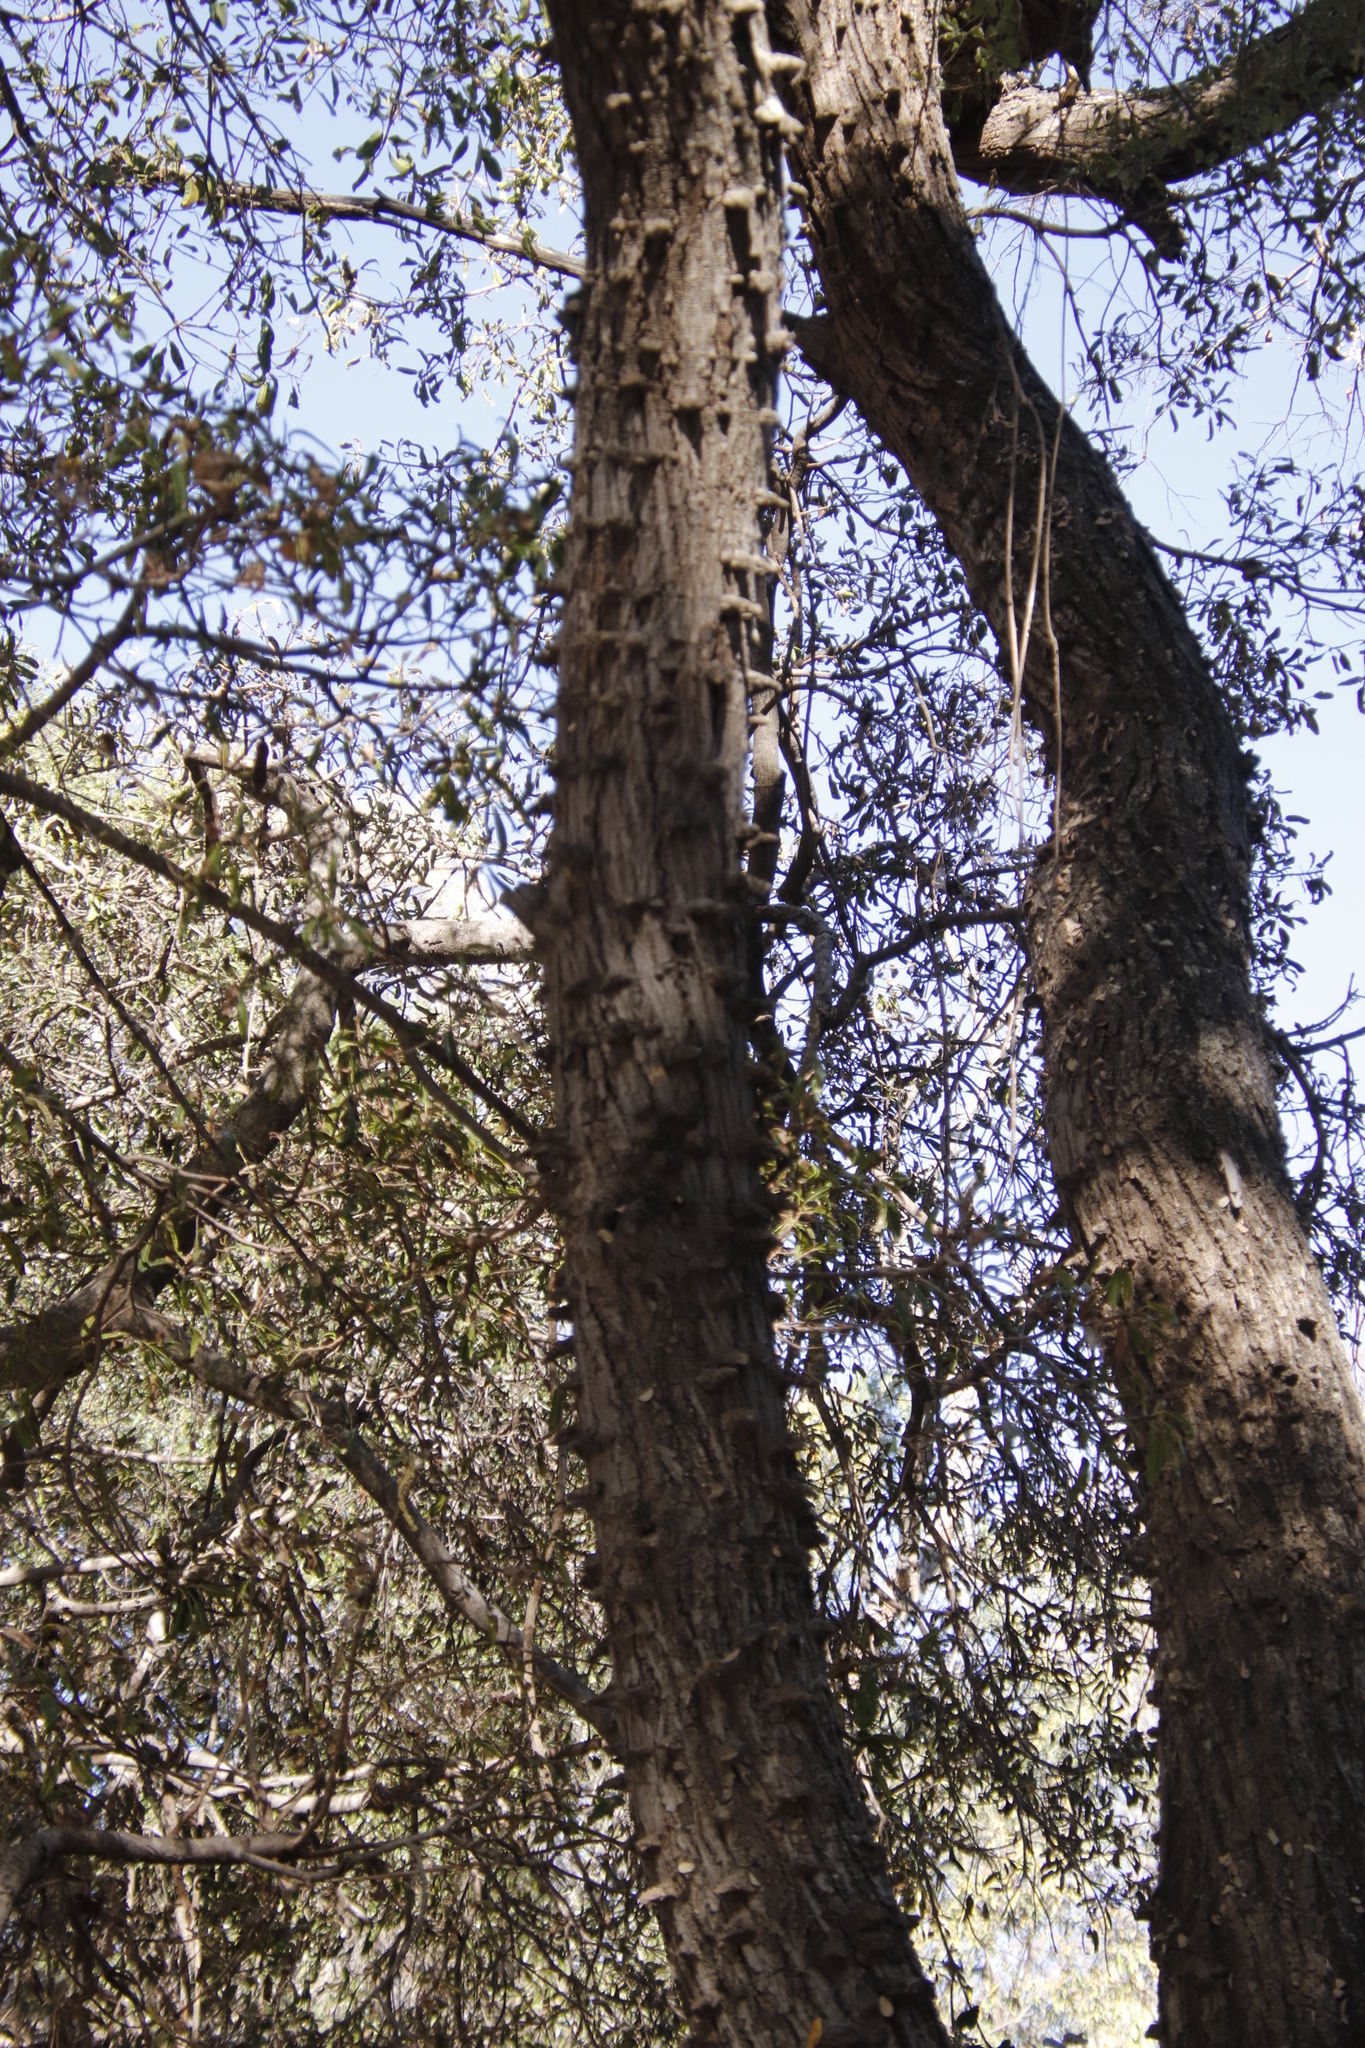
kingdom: Plantae
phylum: Tracheophyta
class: Magnoliopsida
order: Fabales
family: Fabaceae
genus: Senegalia
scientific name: Senegalia nigrescens
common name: Knobthorn
